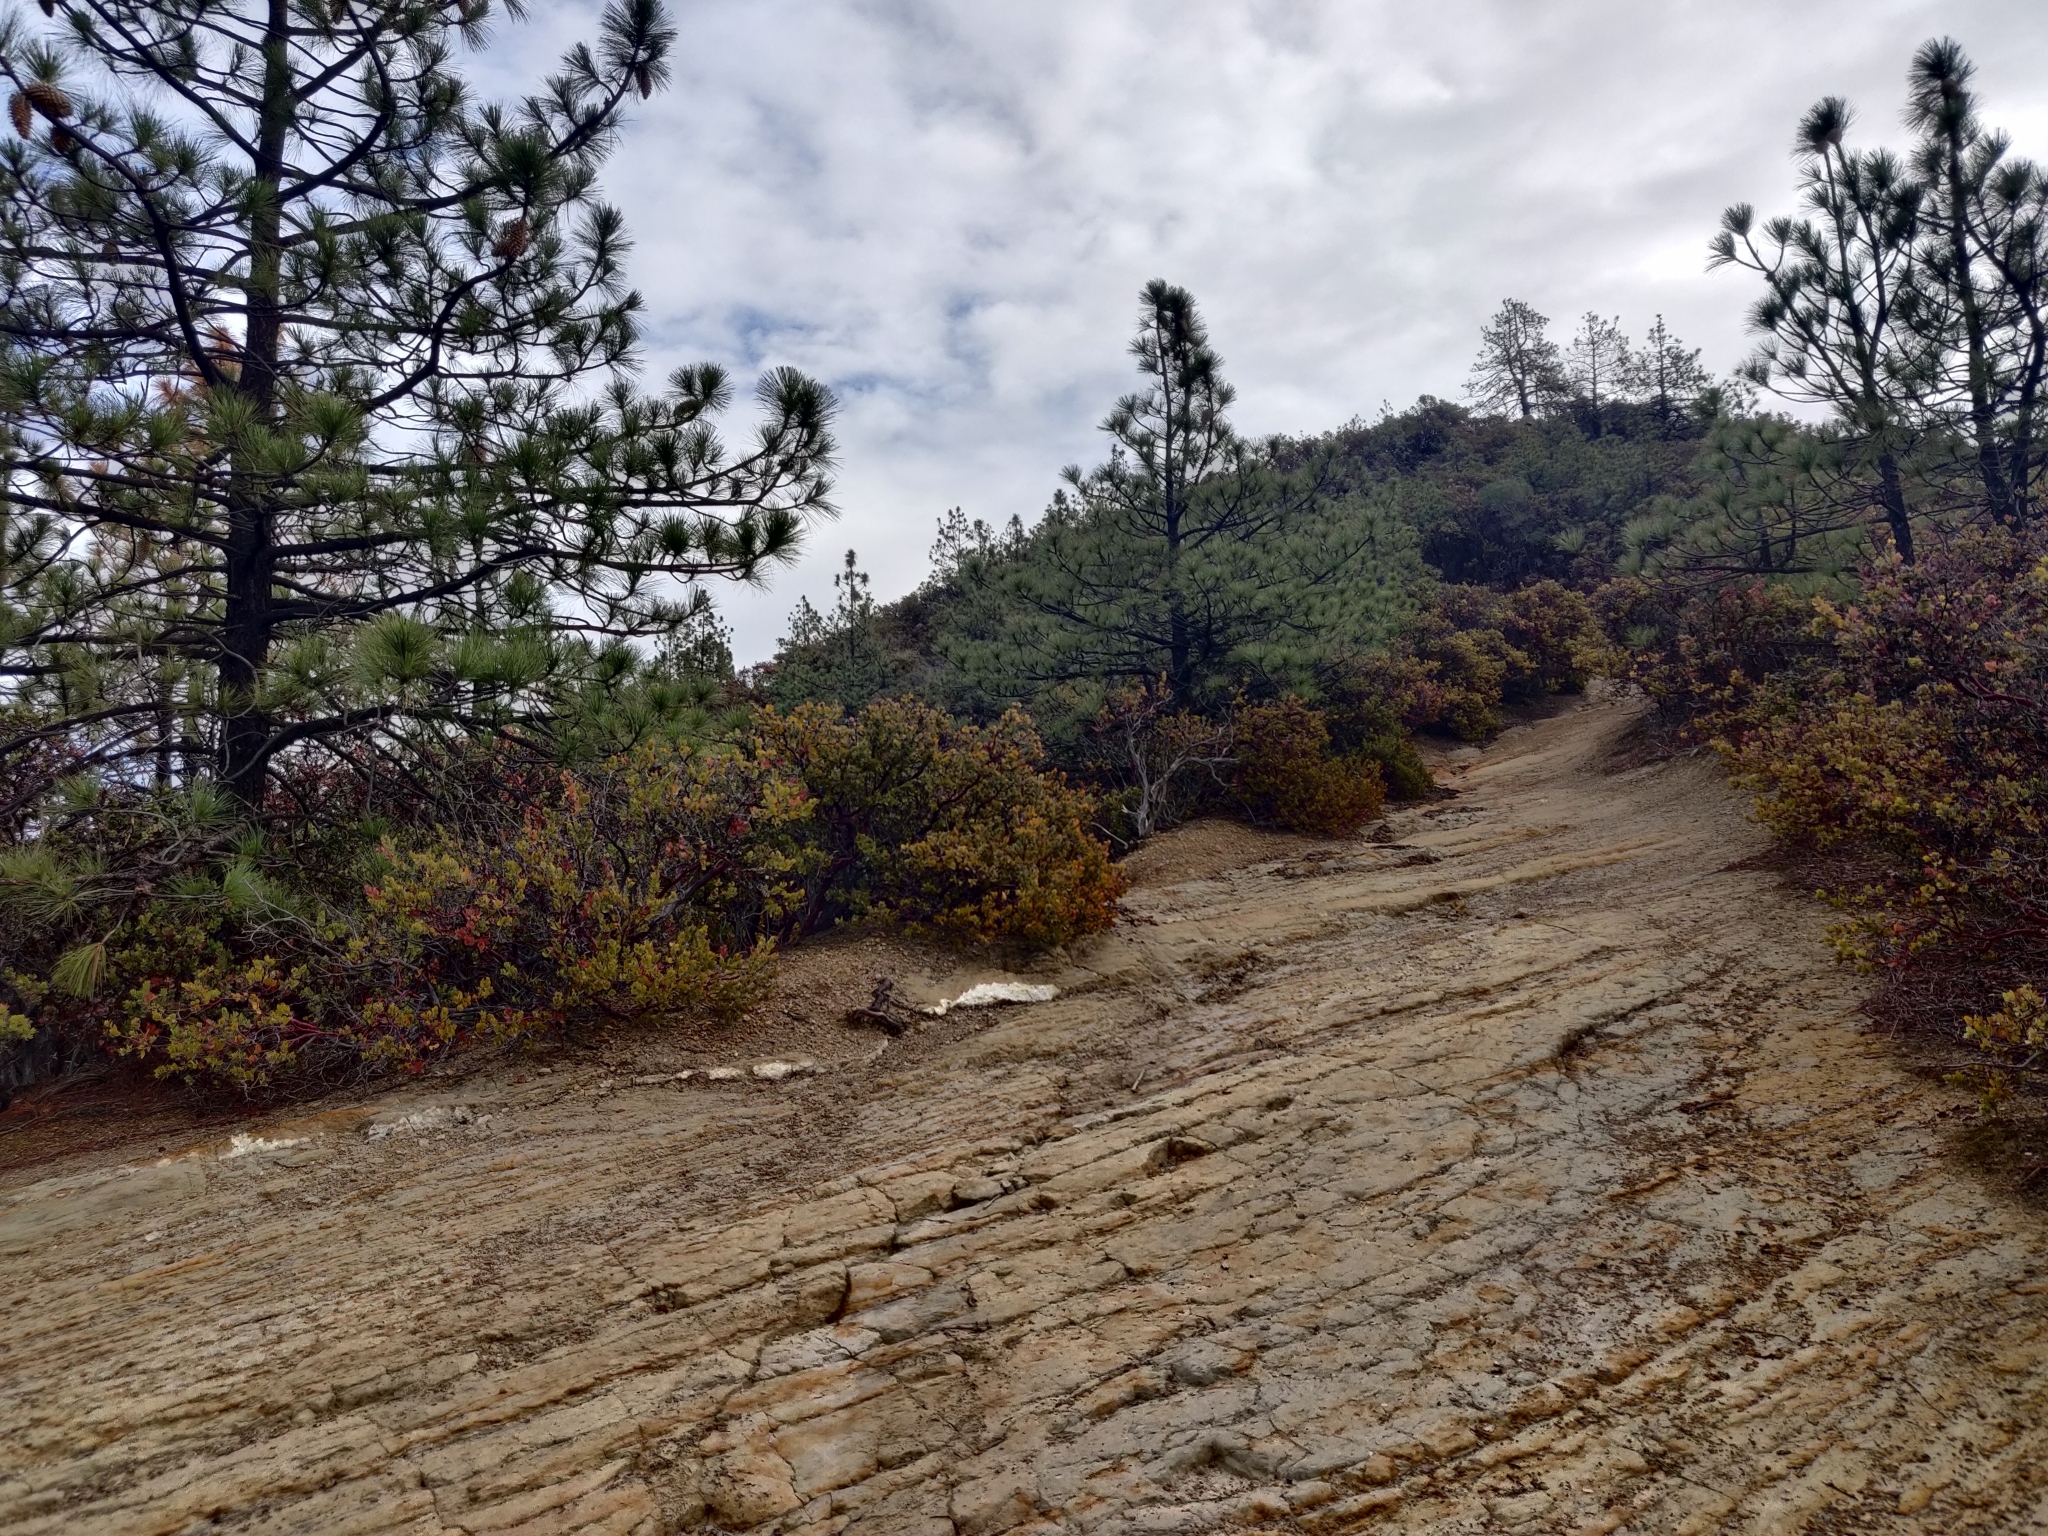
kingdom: Plantae
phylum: Tracheophyta
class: Magnoliopsida
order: Ericales
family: Ericaceae
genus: Arctostaphylos
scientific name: Arctostaphylos auriculata
